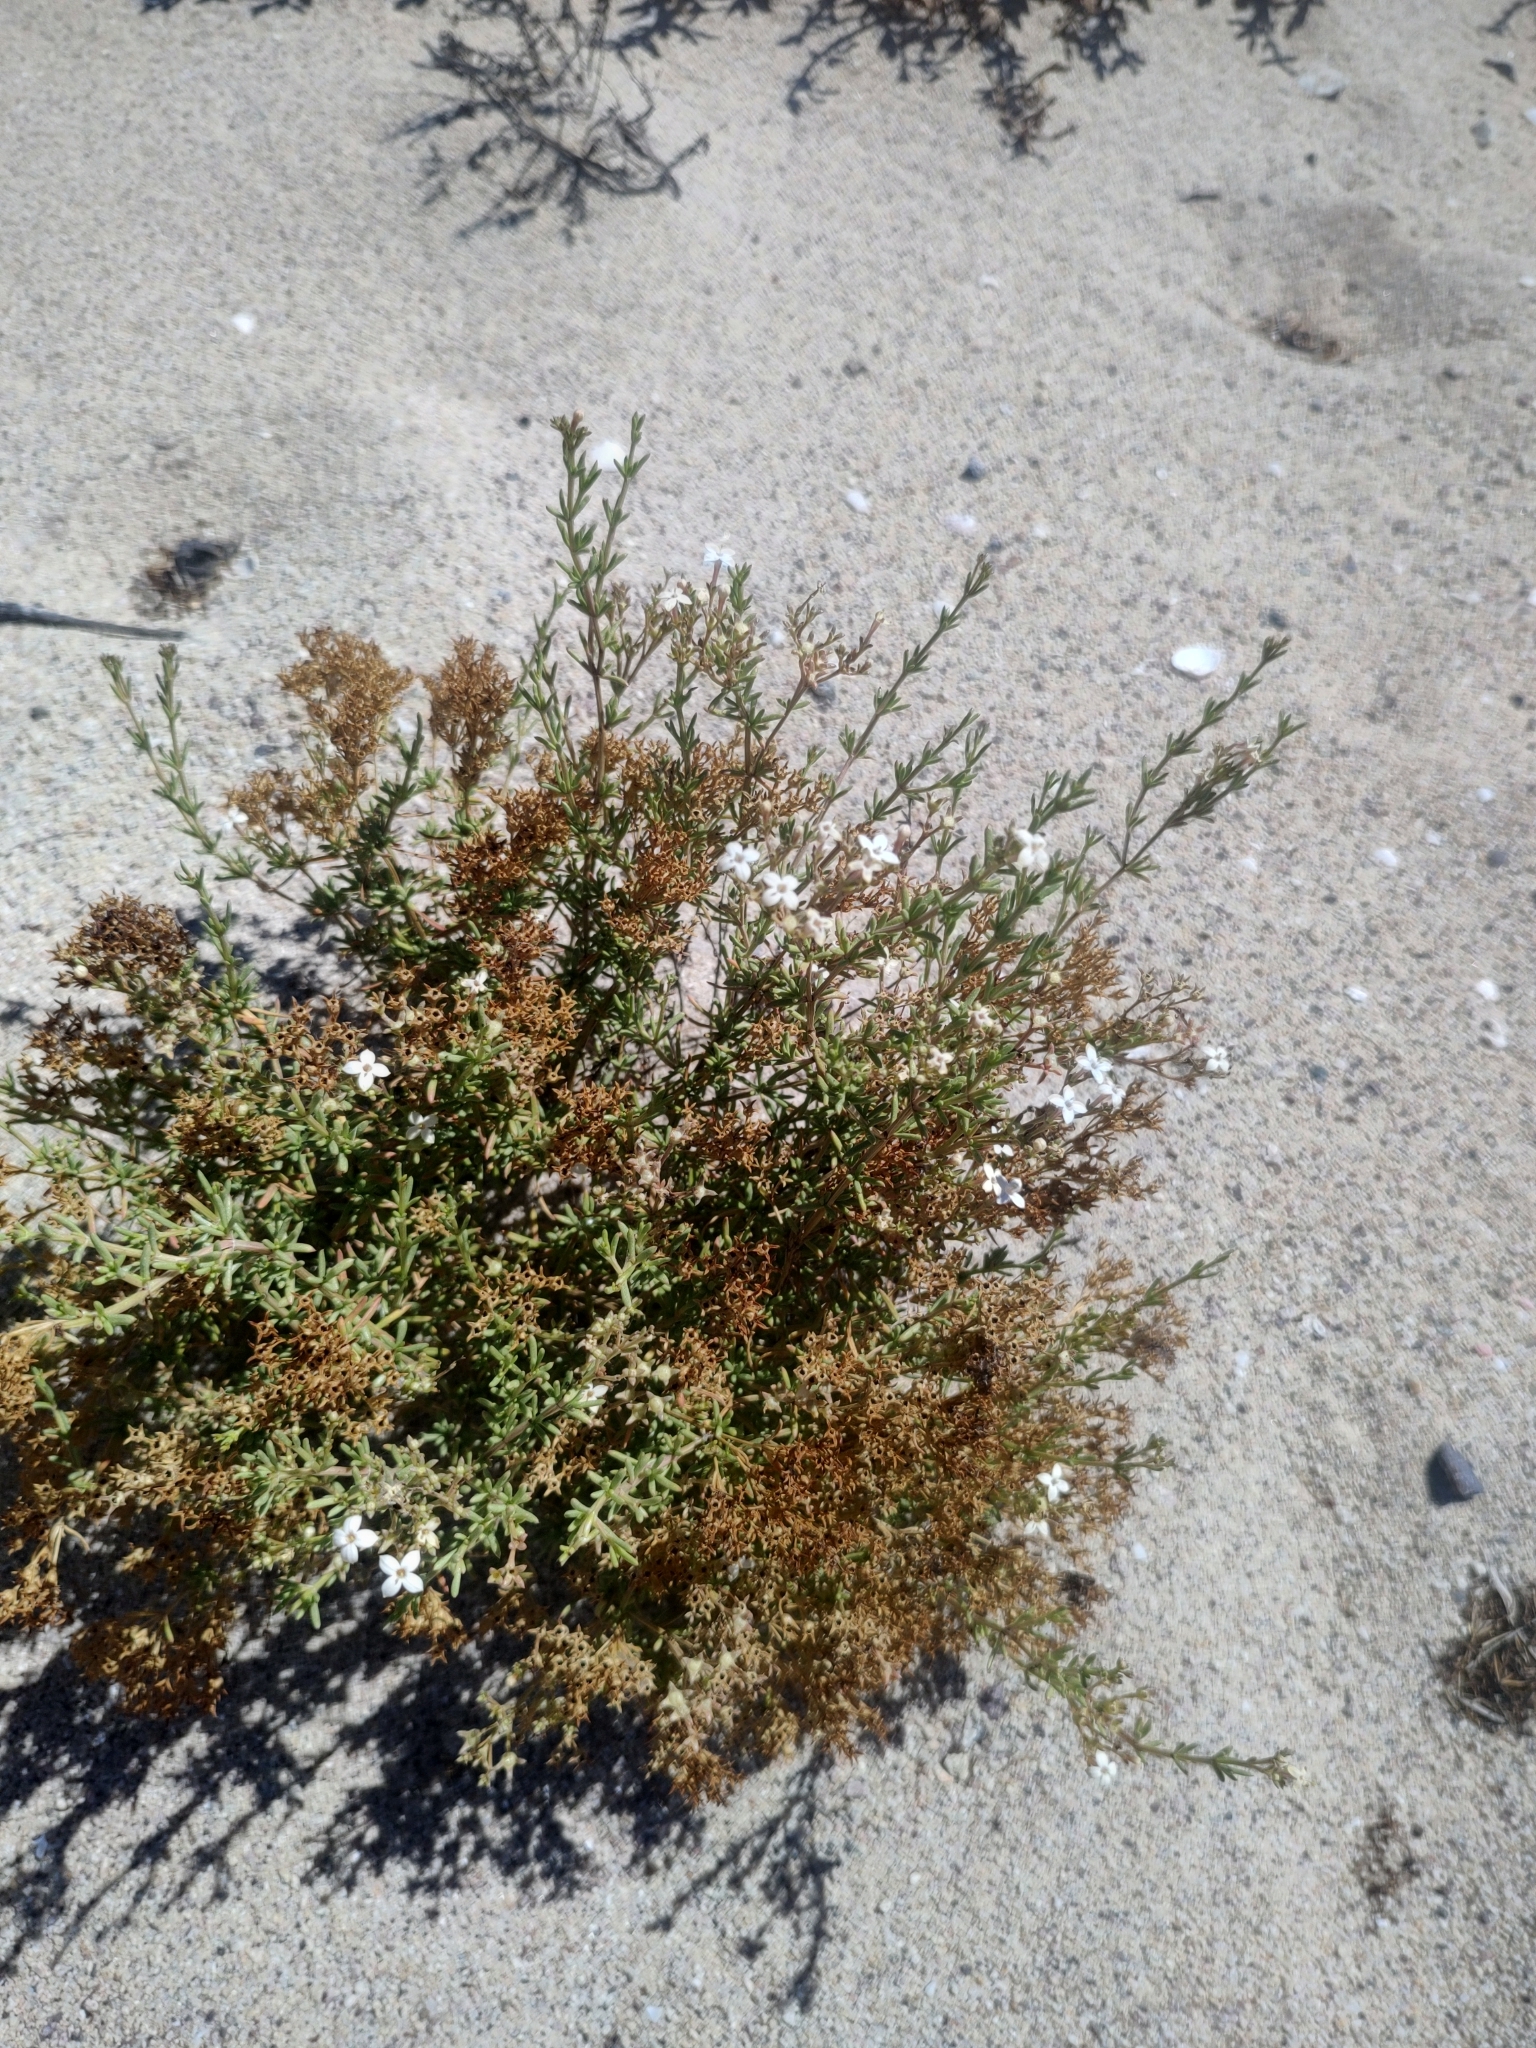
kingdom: Plantae
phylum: Tracheophyta
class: Magnoliopsida
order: Gentianales
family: Rubiaceae
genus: Stenotis
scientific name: Stenotis mucronata
